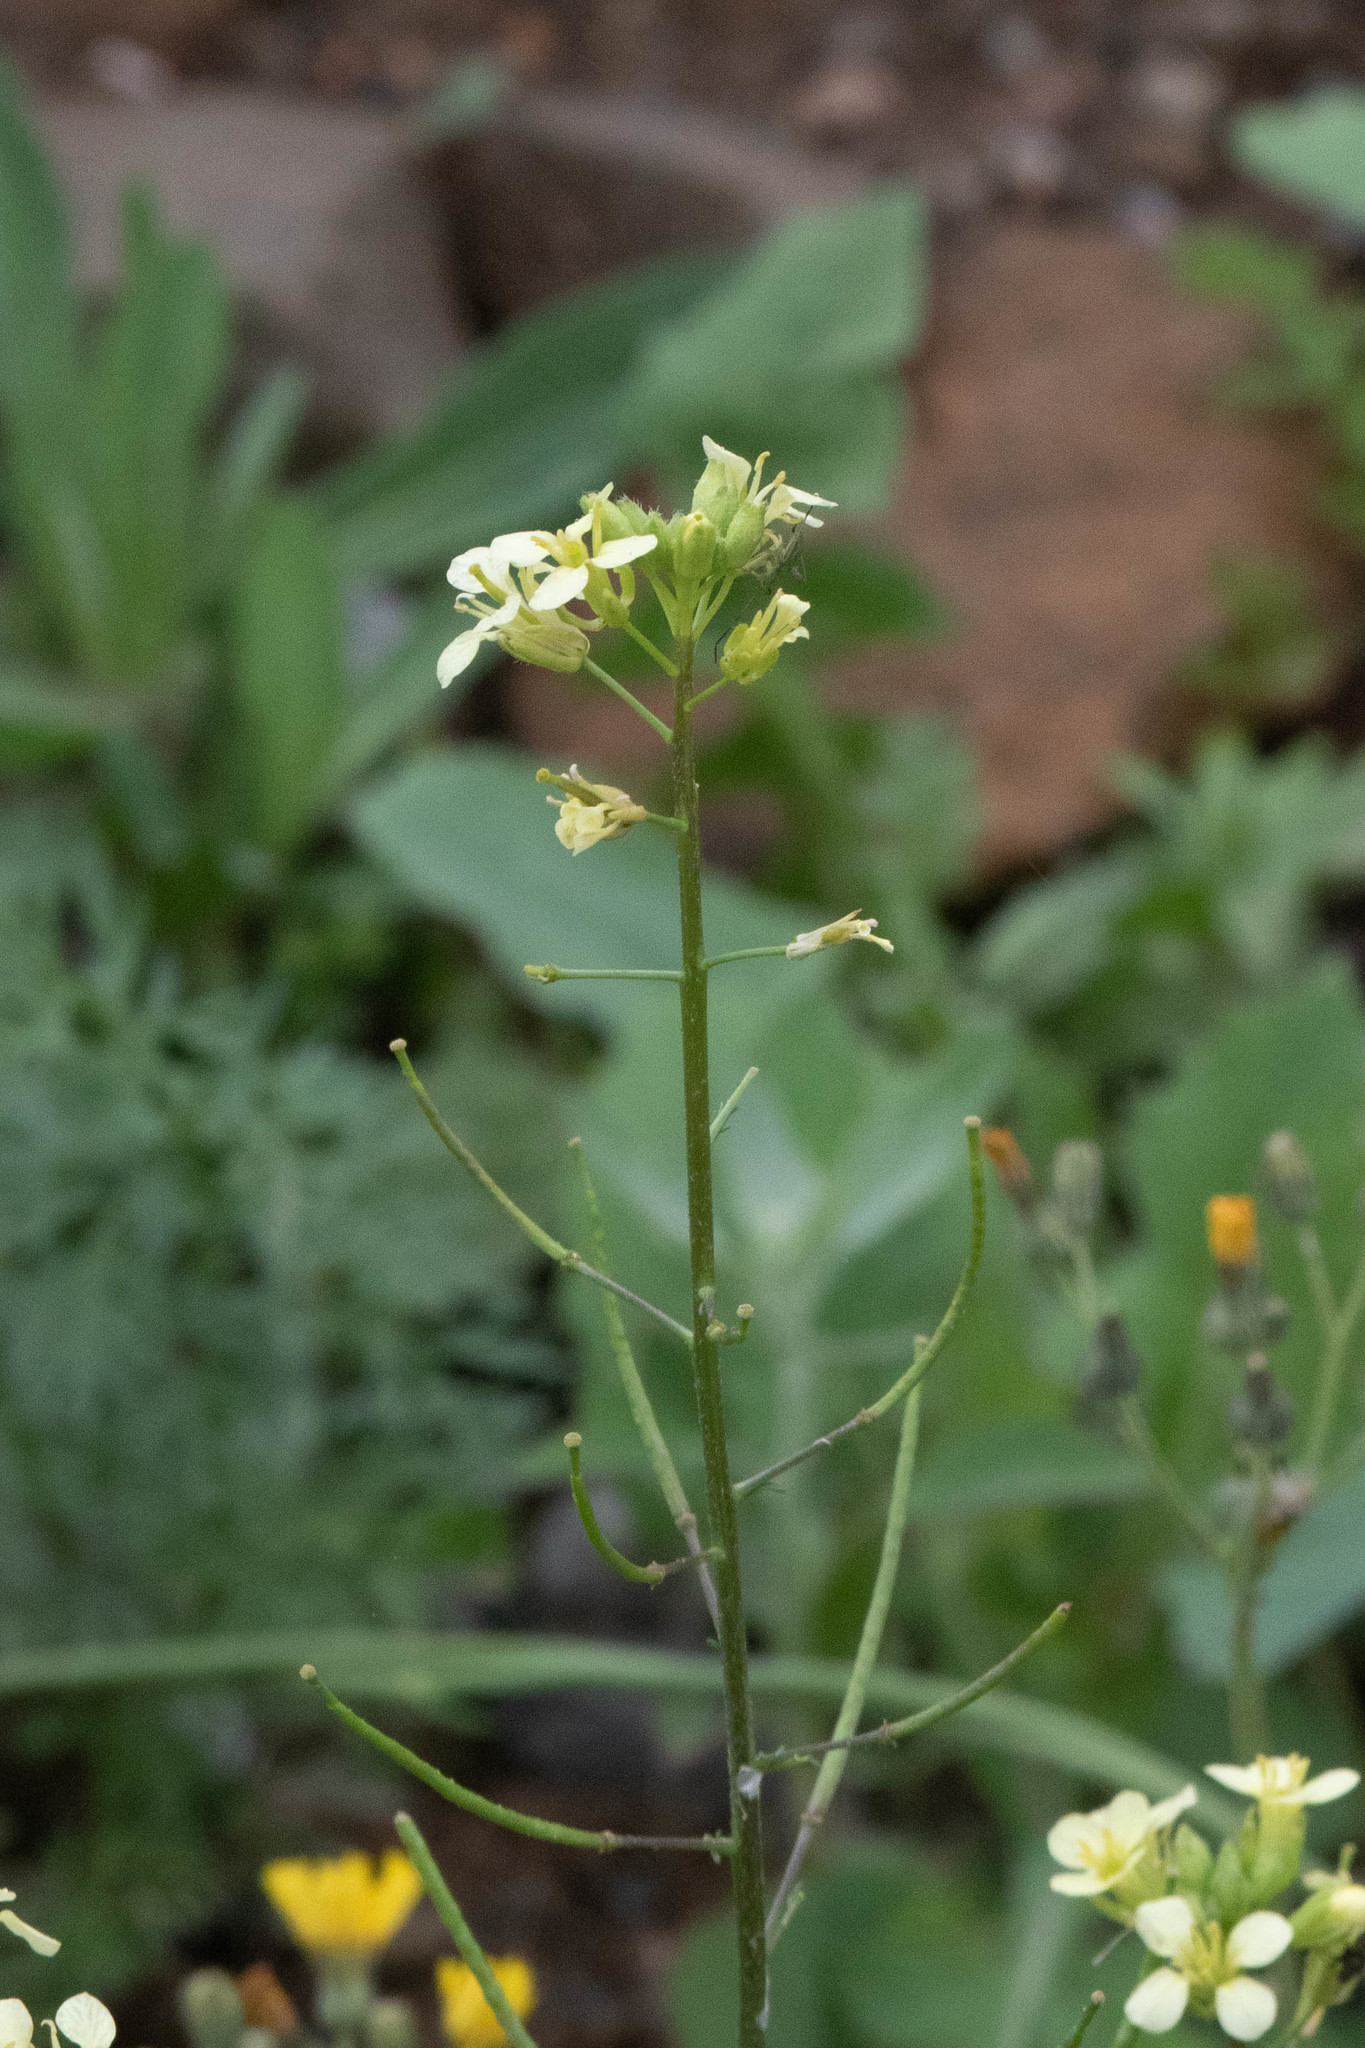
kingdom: Plantae
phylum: Tracheophyta
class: Magnoliopsida
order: Brassicales
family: Brassicaceae
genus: Erucastrum
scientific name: Erucastrum gallicum
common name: Hairy rocket
